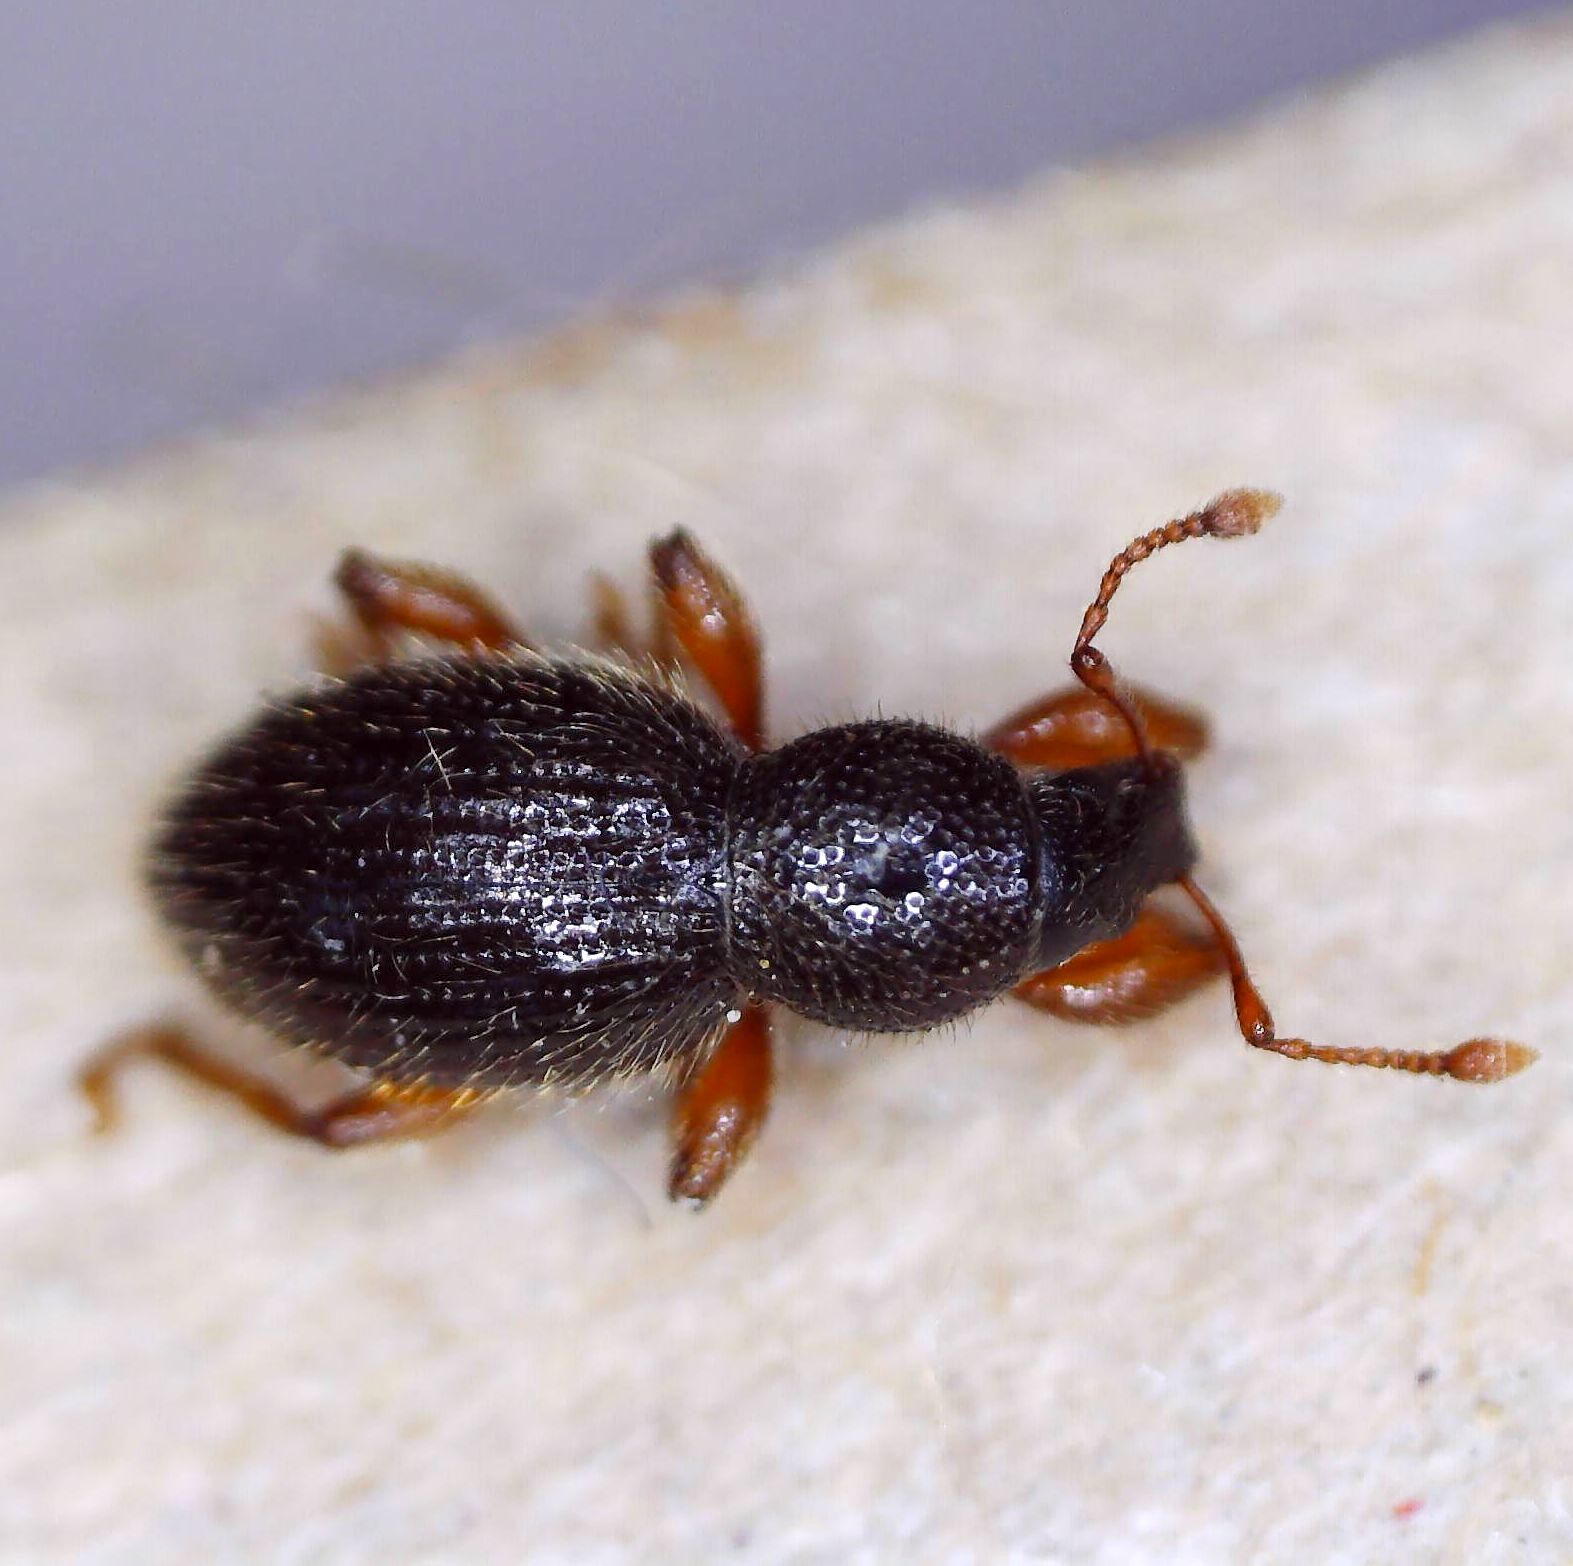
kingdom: Animalia
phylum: Arthropoda
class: Insecta
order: Coleoptera
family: Curculionidae
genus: Exomias
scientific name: Exomias pellucidus
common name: Hairy spider weevil
